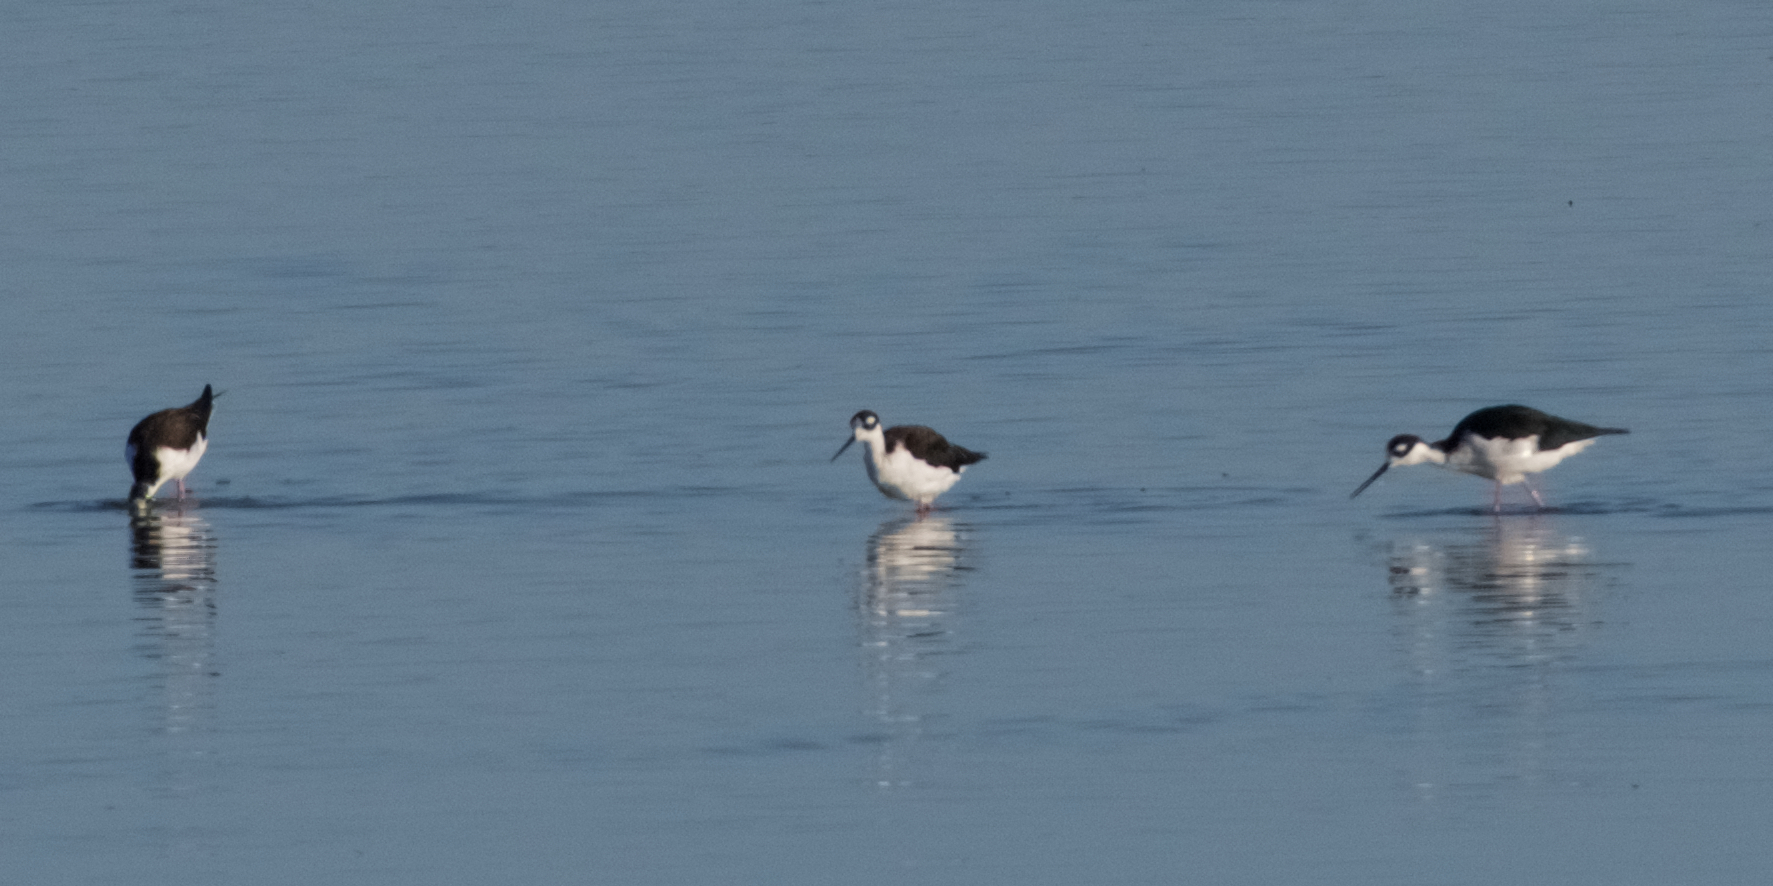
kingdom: Animalia
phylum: Chordata
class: Aves
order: Charadriiformes
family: Recurvirostridae
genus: Himantopus
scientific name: Himantopus mexicanus
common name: Black-necked stilt
